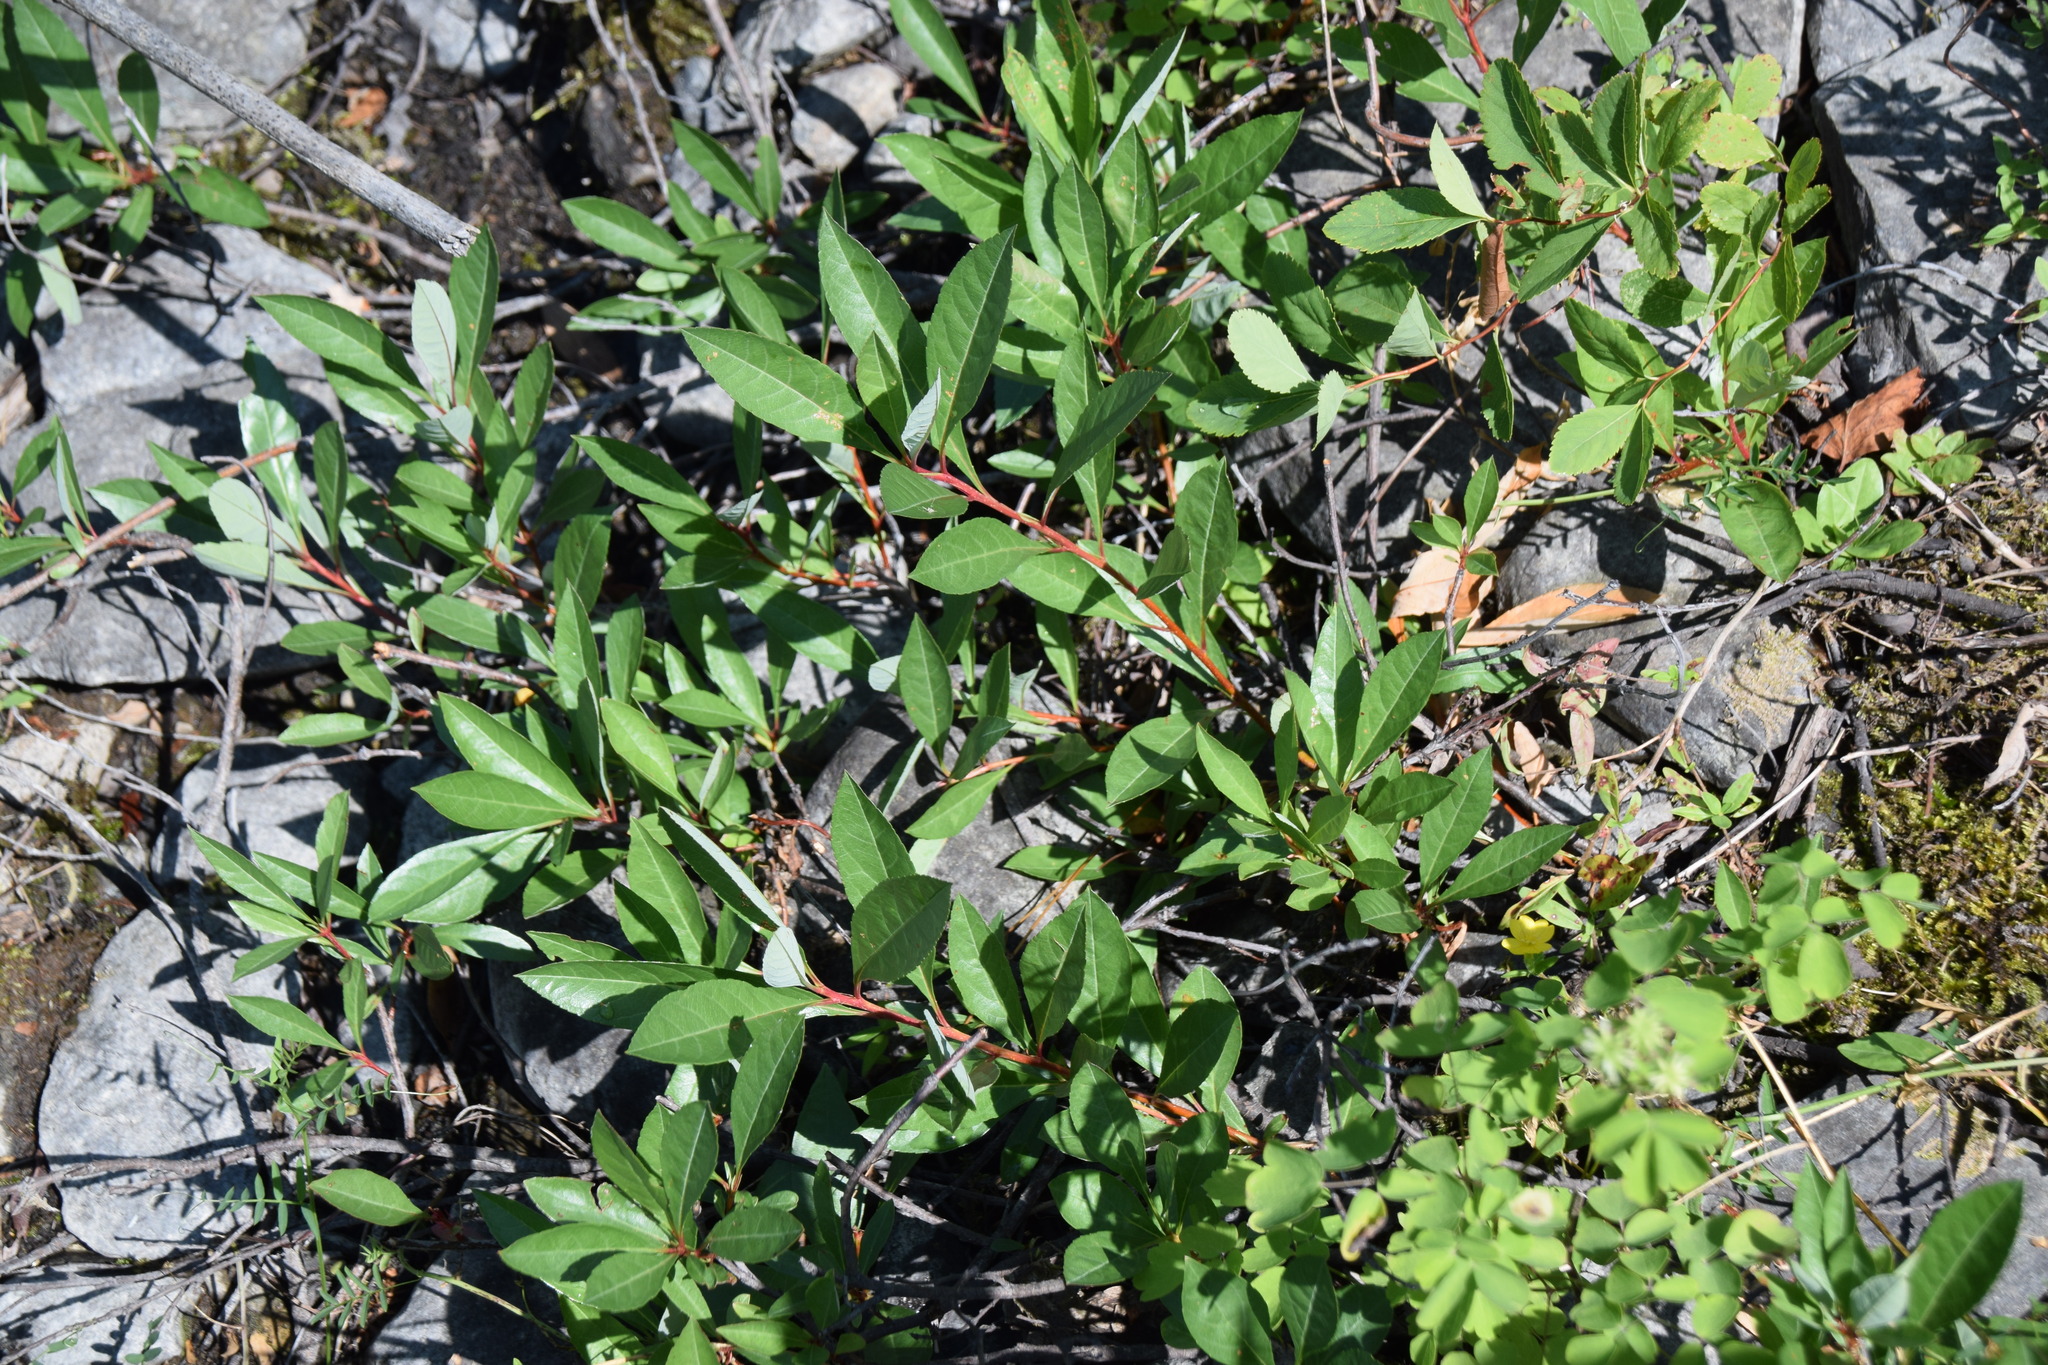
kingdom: Plantae
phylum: Tracheophyta
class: Magnoliopsida
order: Rosales
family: Rosaceae
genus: Prunus
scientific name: Prunus pumila
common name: Dwarf cherry
